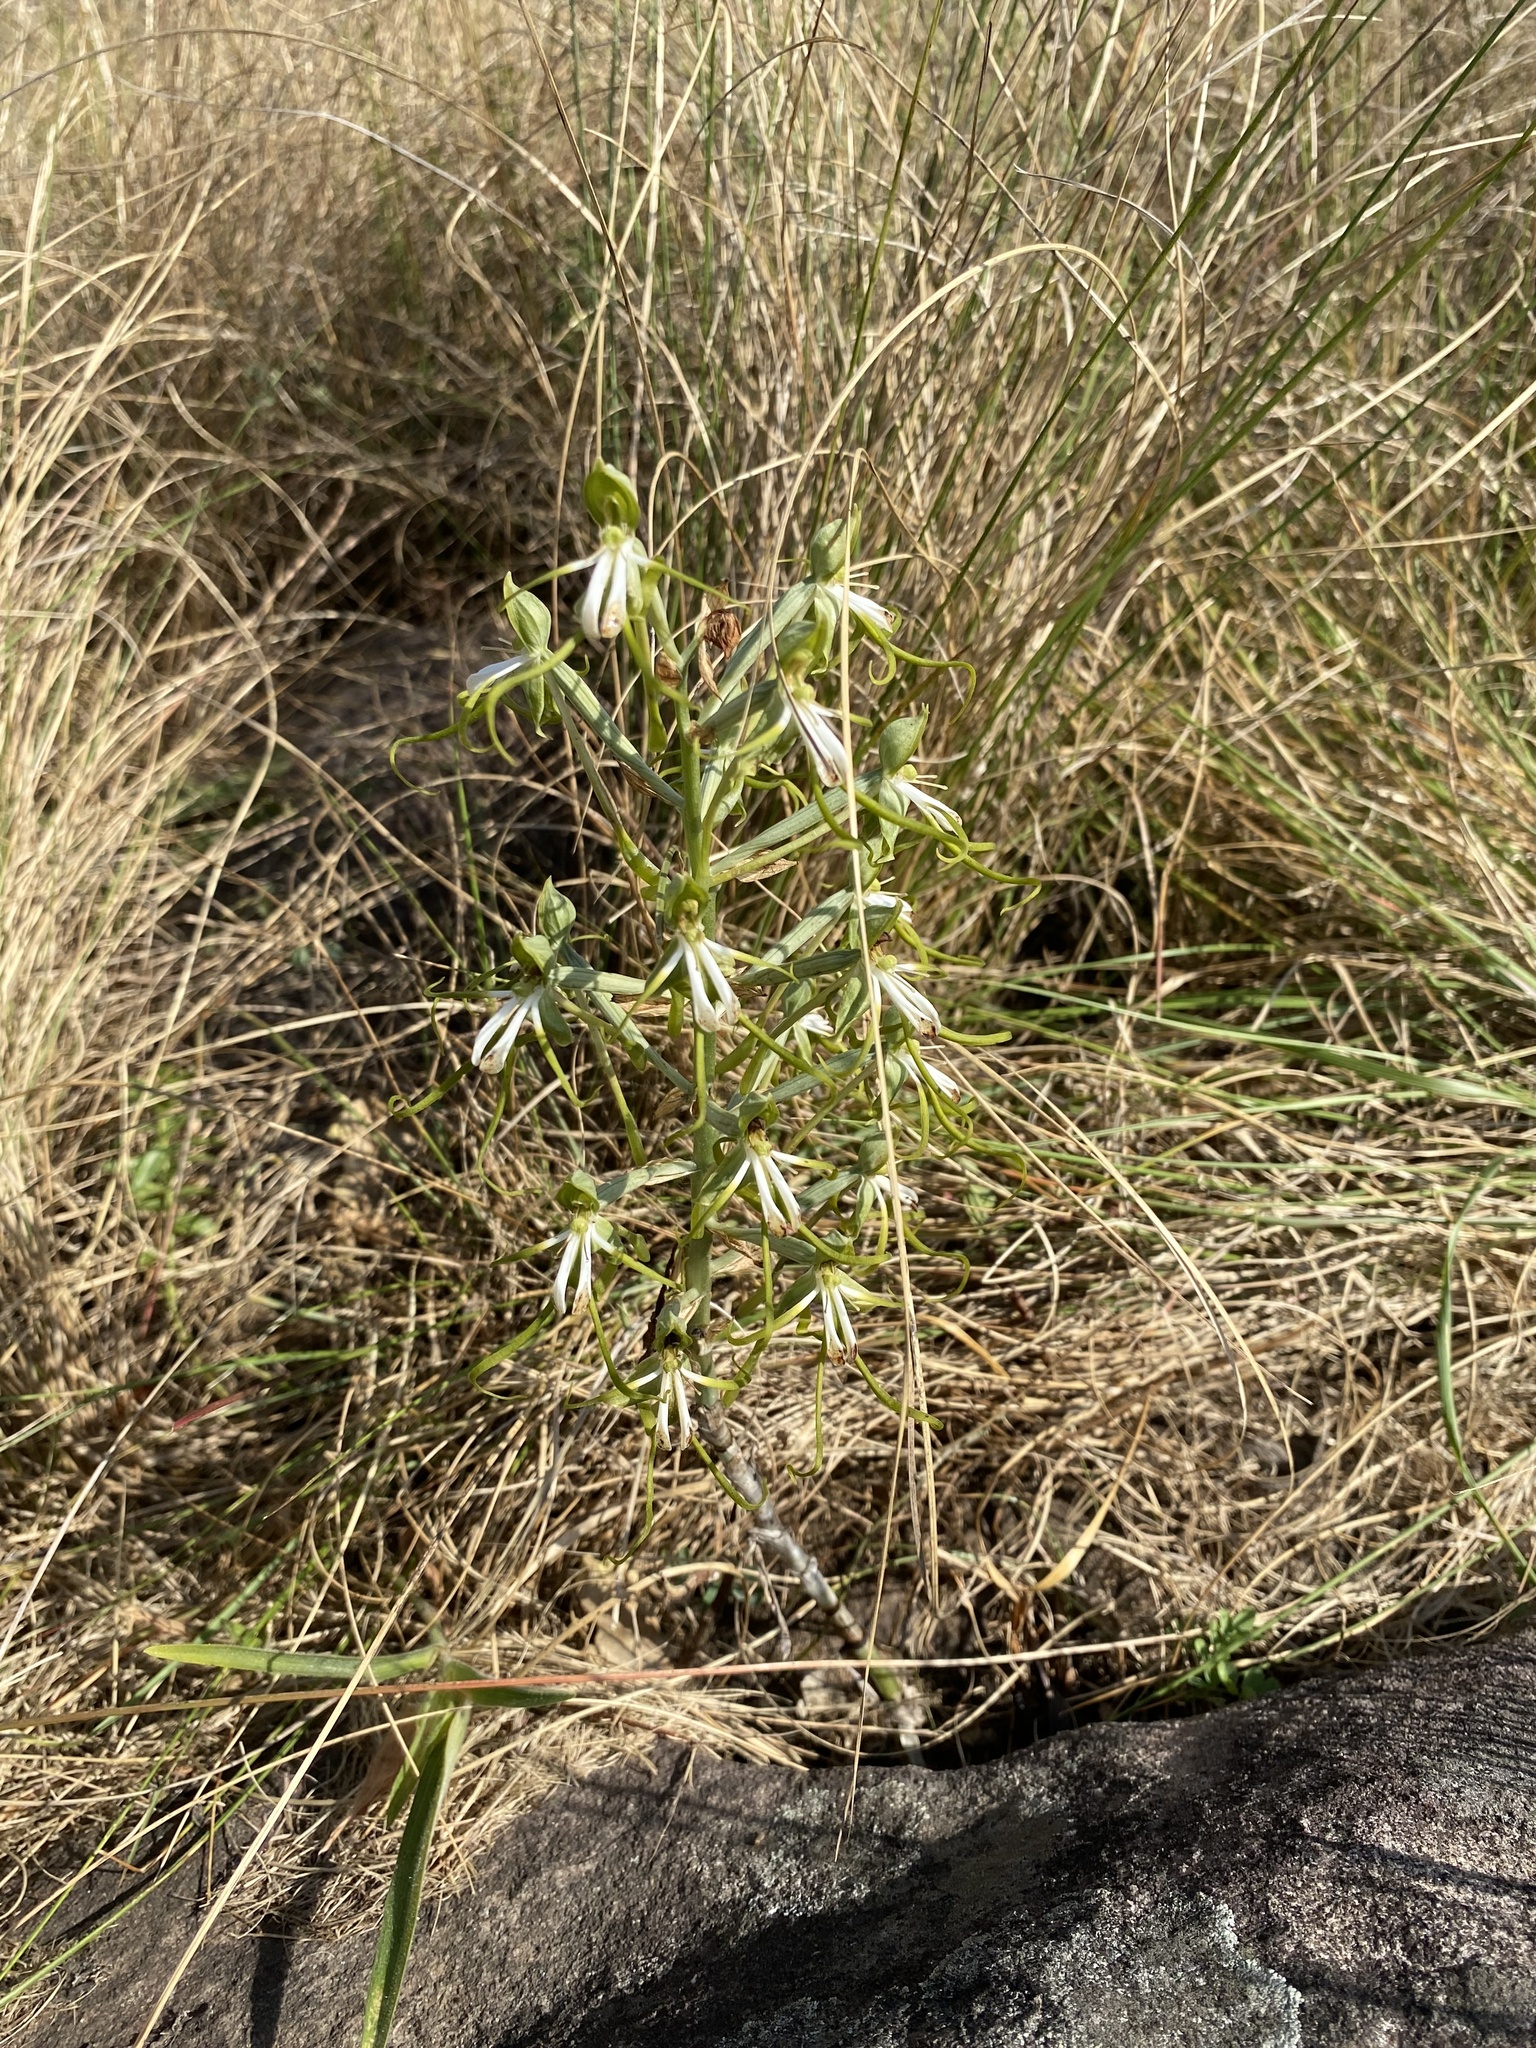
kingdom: Plantae
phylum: Tracheophyta
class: Liliopsida
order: Asparagales
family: Orchidaceae
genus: Bonatea
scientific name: Bonatea porrecta
